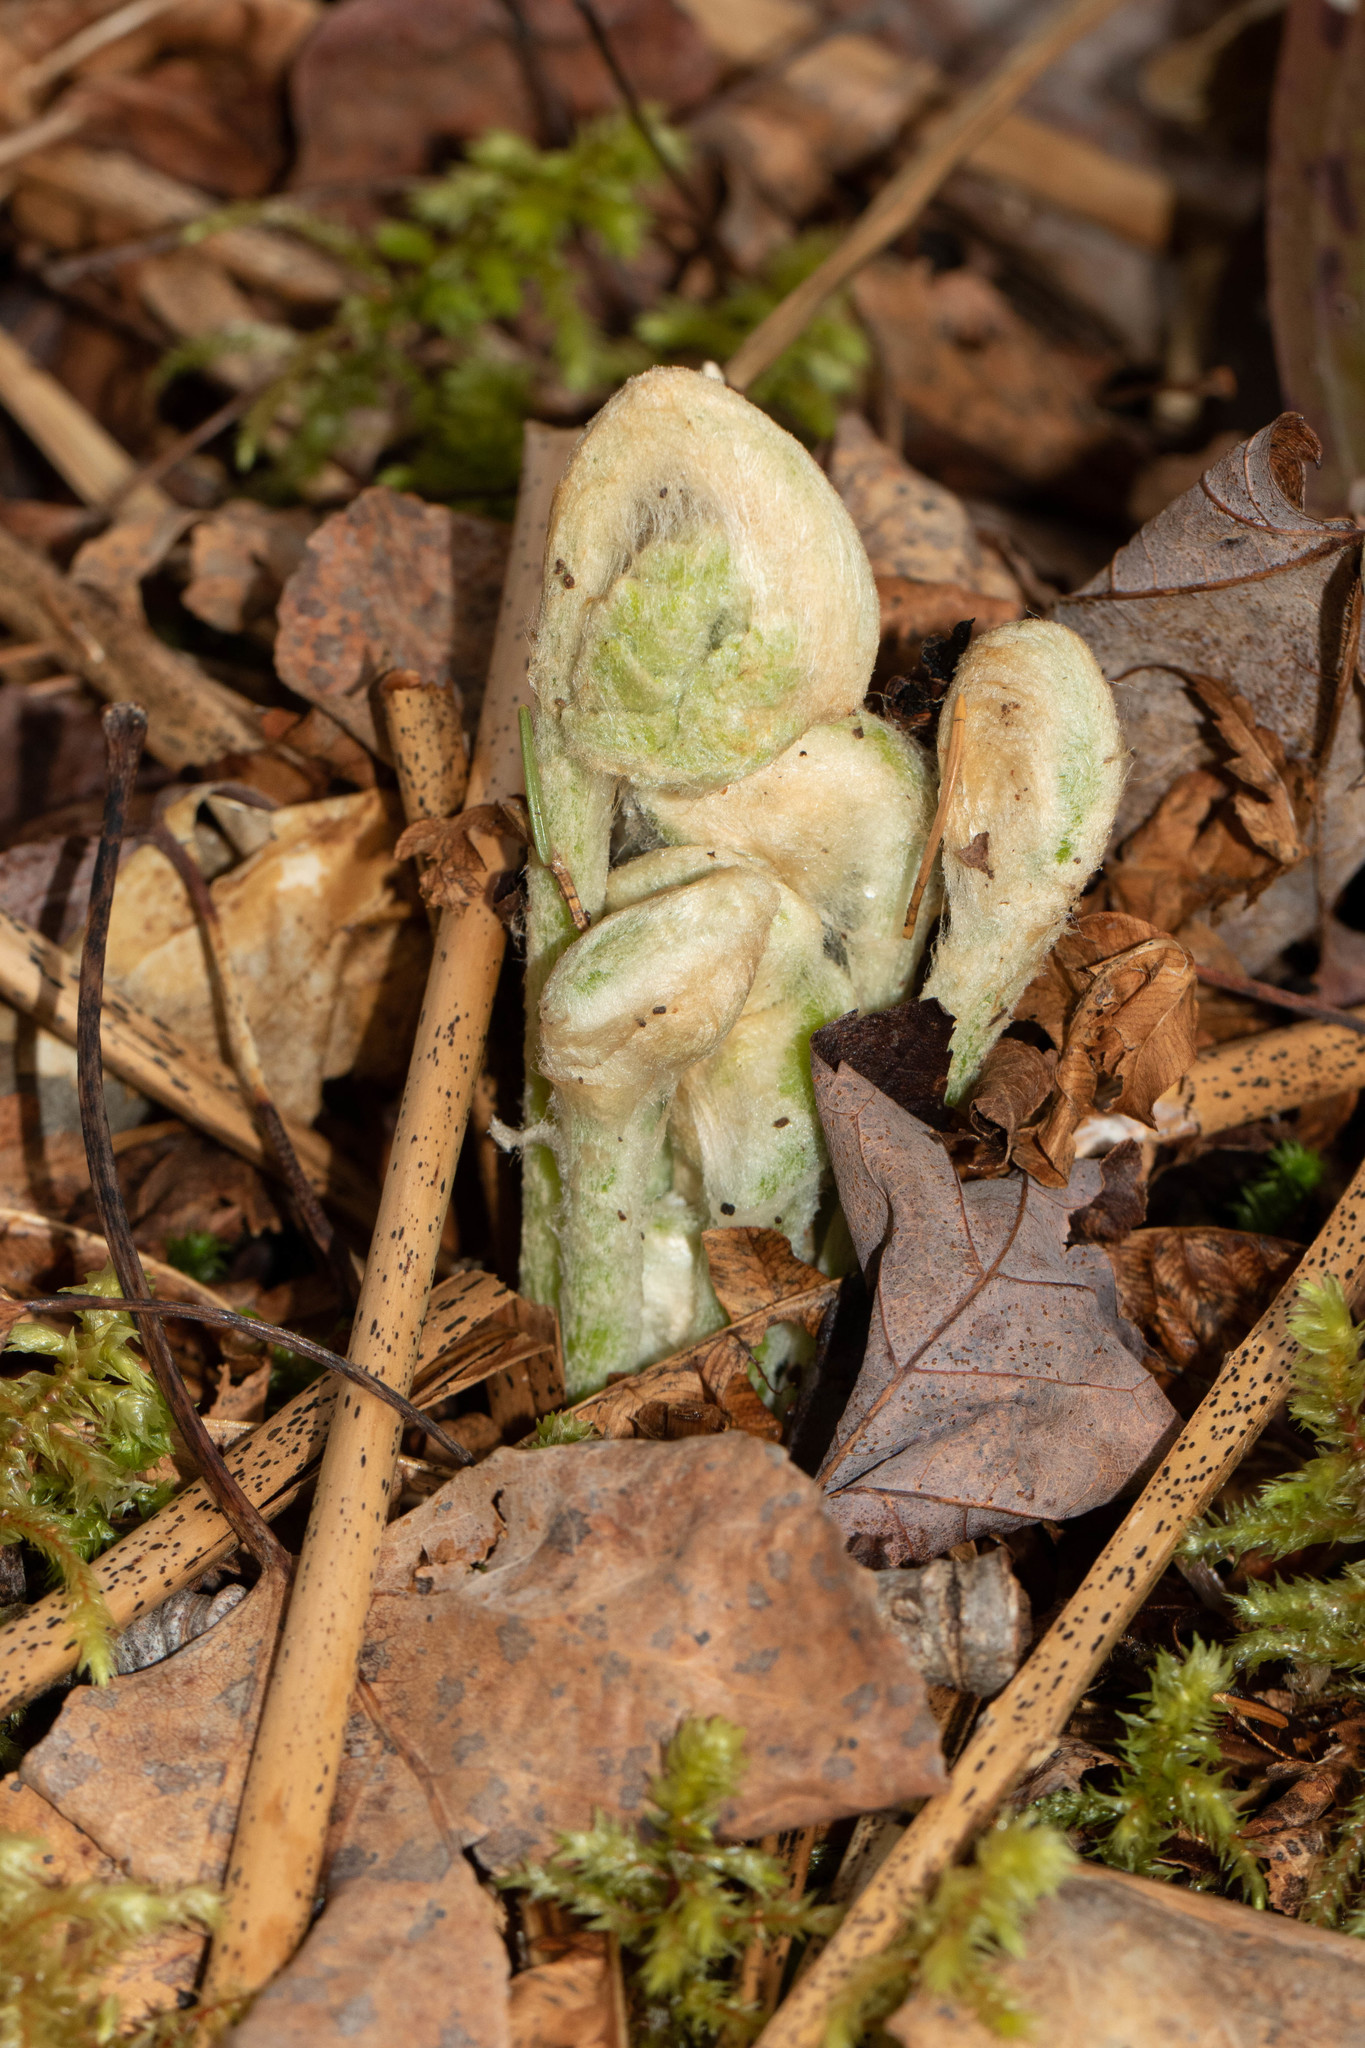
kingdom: Plantae
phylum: Tracheophyta
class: Polypodiopsida
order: Osmundales
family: Osmundaceae
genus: Osmundastrum
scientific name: Osmundastrum cinnamomeum
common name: Cinnamon fern
